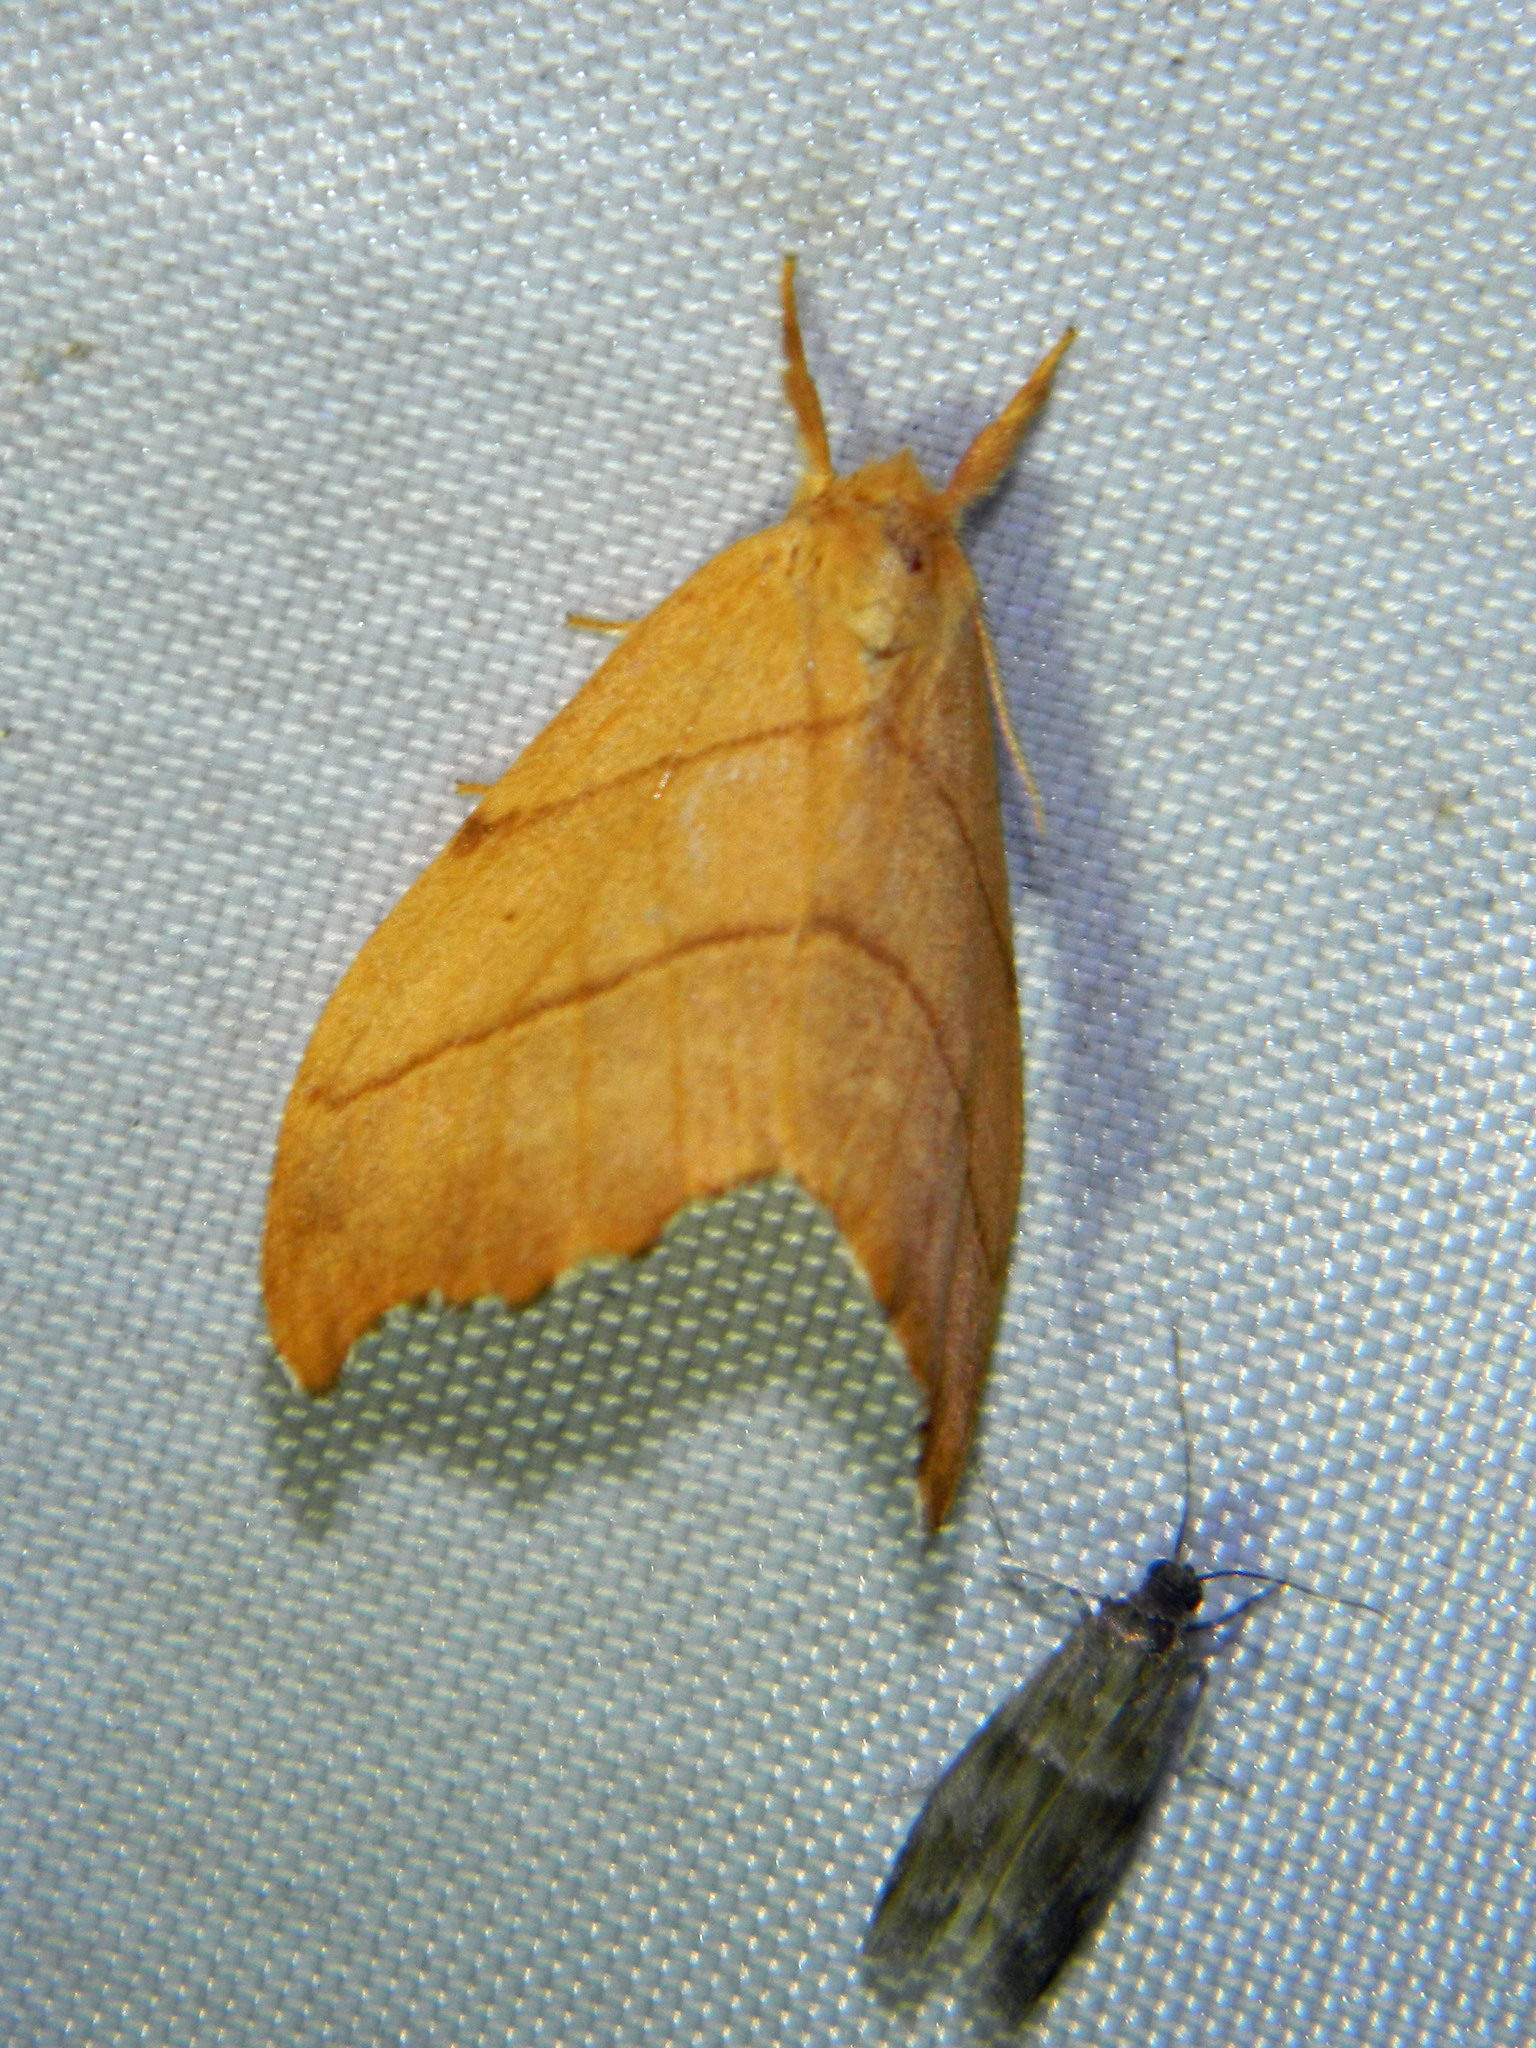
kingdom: Animalia
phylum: Arthropoda
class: Insecta
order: Lepidoptera
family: Drepanidae
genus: Falcaria
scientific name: Falcaria bilineata
